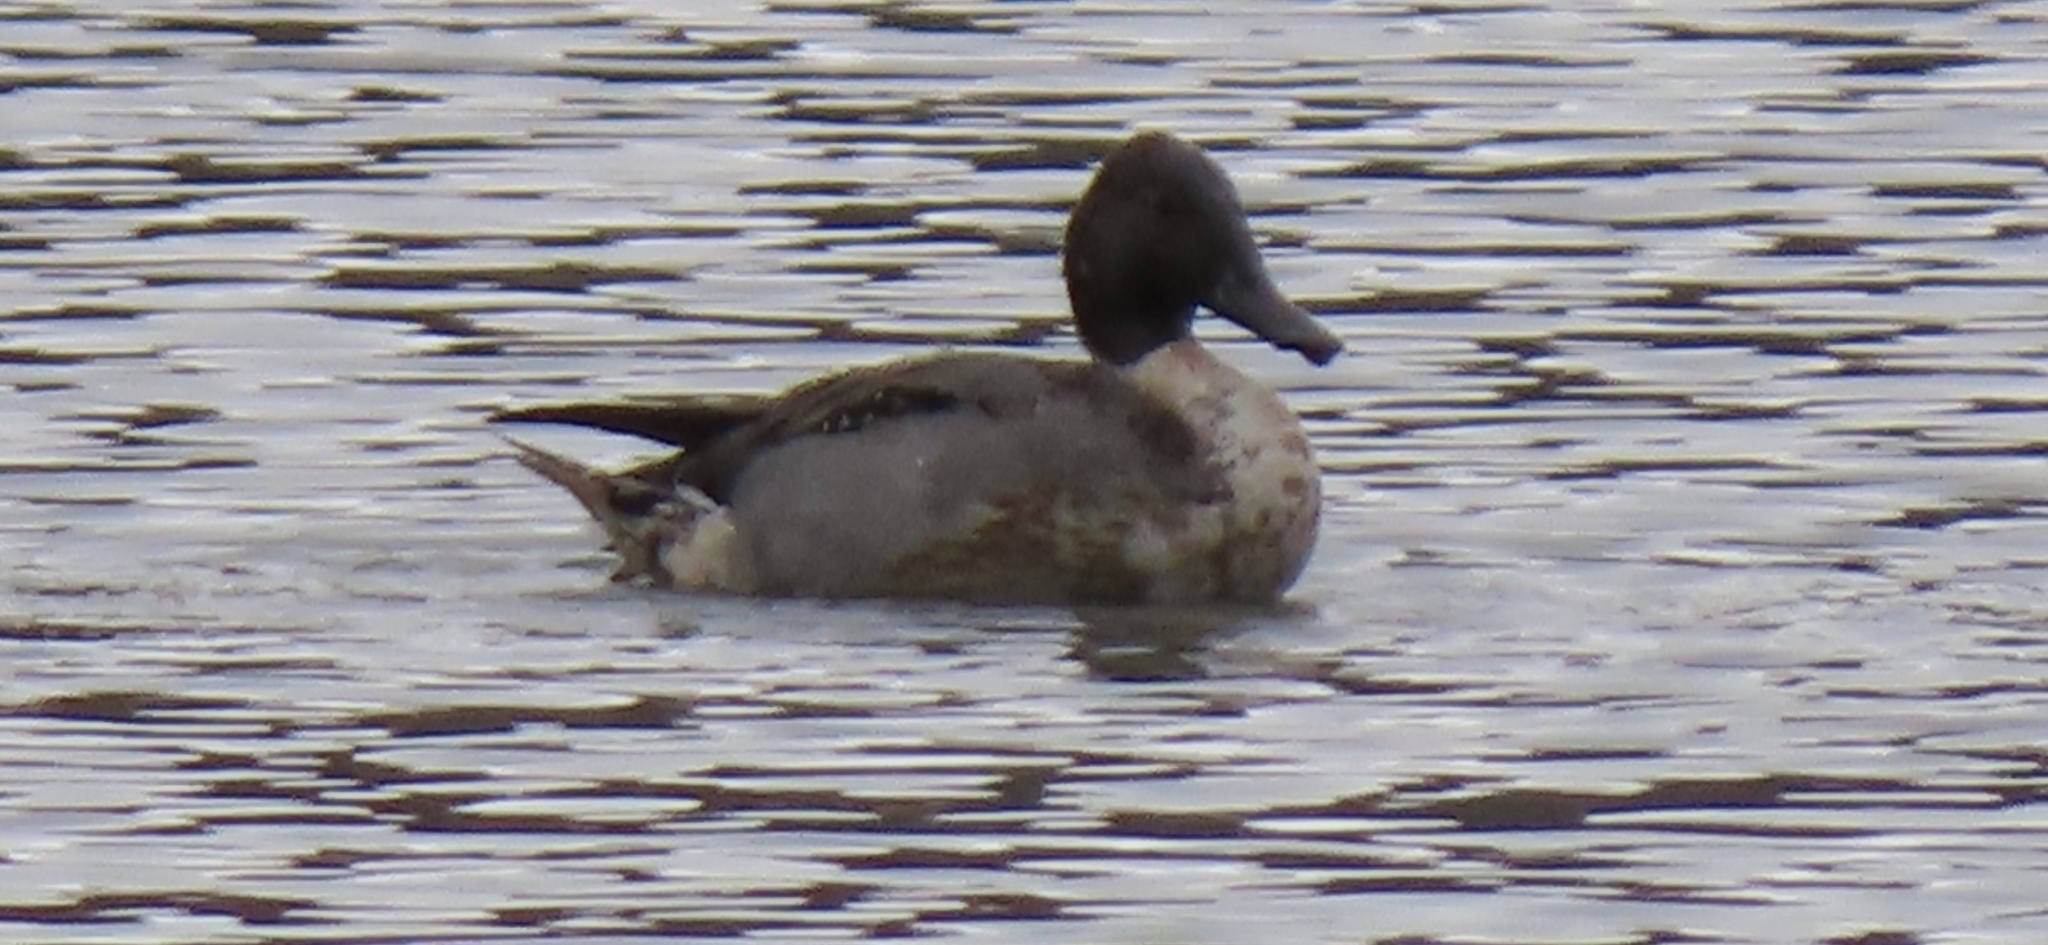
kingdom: Animalia
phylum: Chordata
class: Aves
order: Anseriformes
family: Anatidae
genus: Anas
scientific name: Anas acuta
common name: Northern pintail
